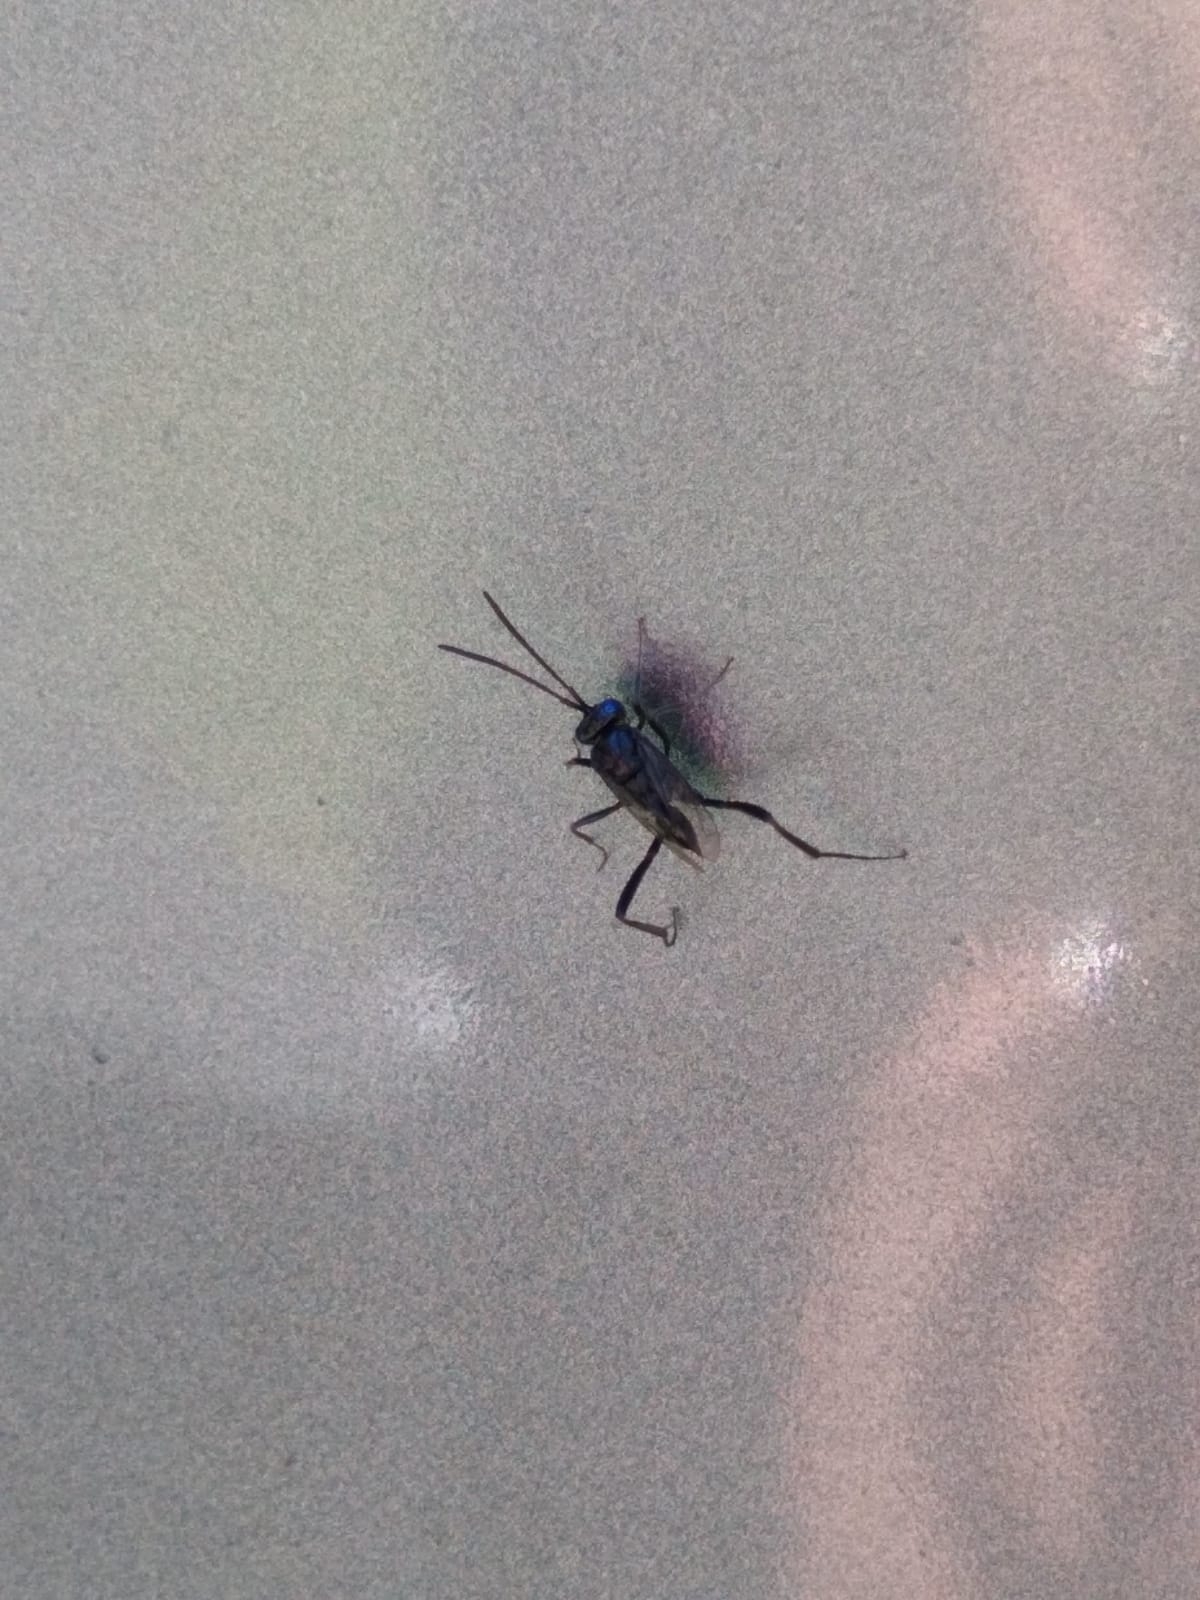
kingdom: Animalia
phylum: Arthropoda
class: Insecta
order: Hymenoptera
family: Evaniidae
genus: Evania
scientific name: Evania appendigaster
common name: Ensign wasp
